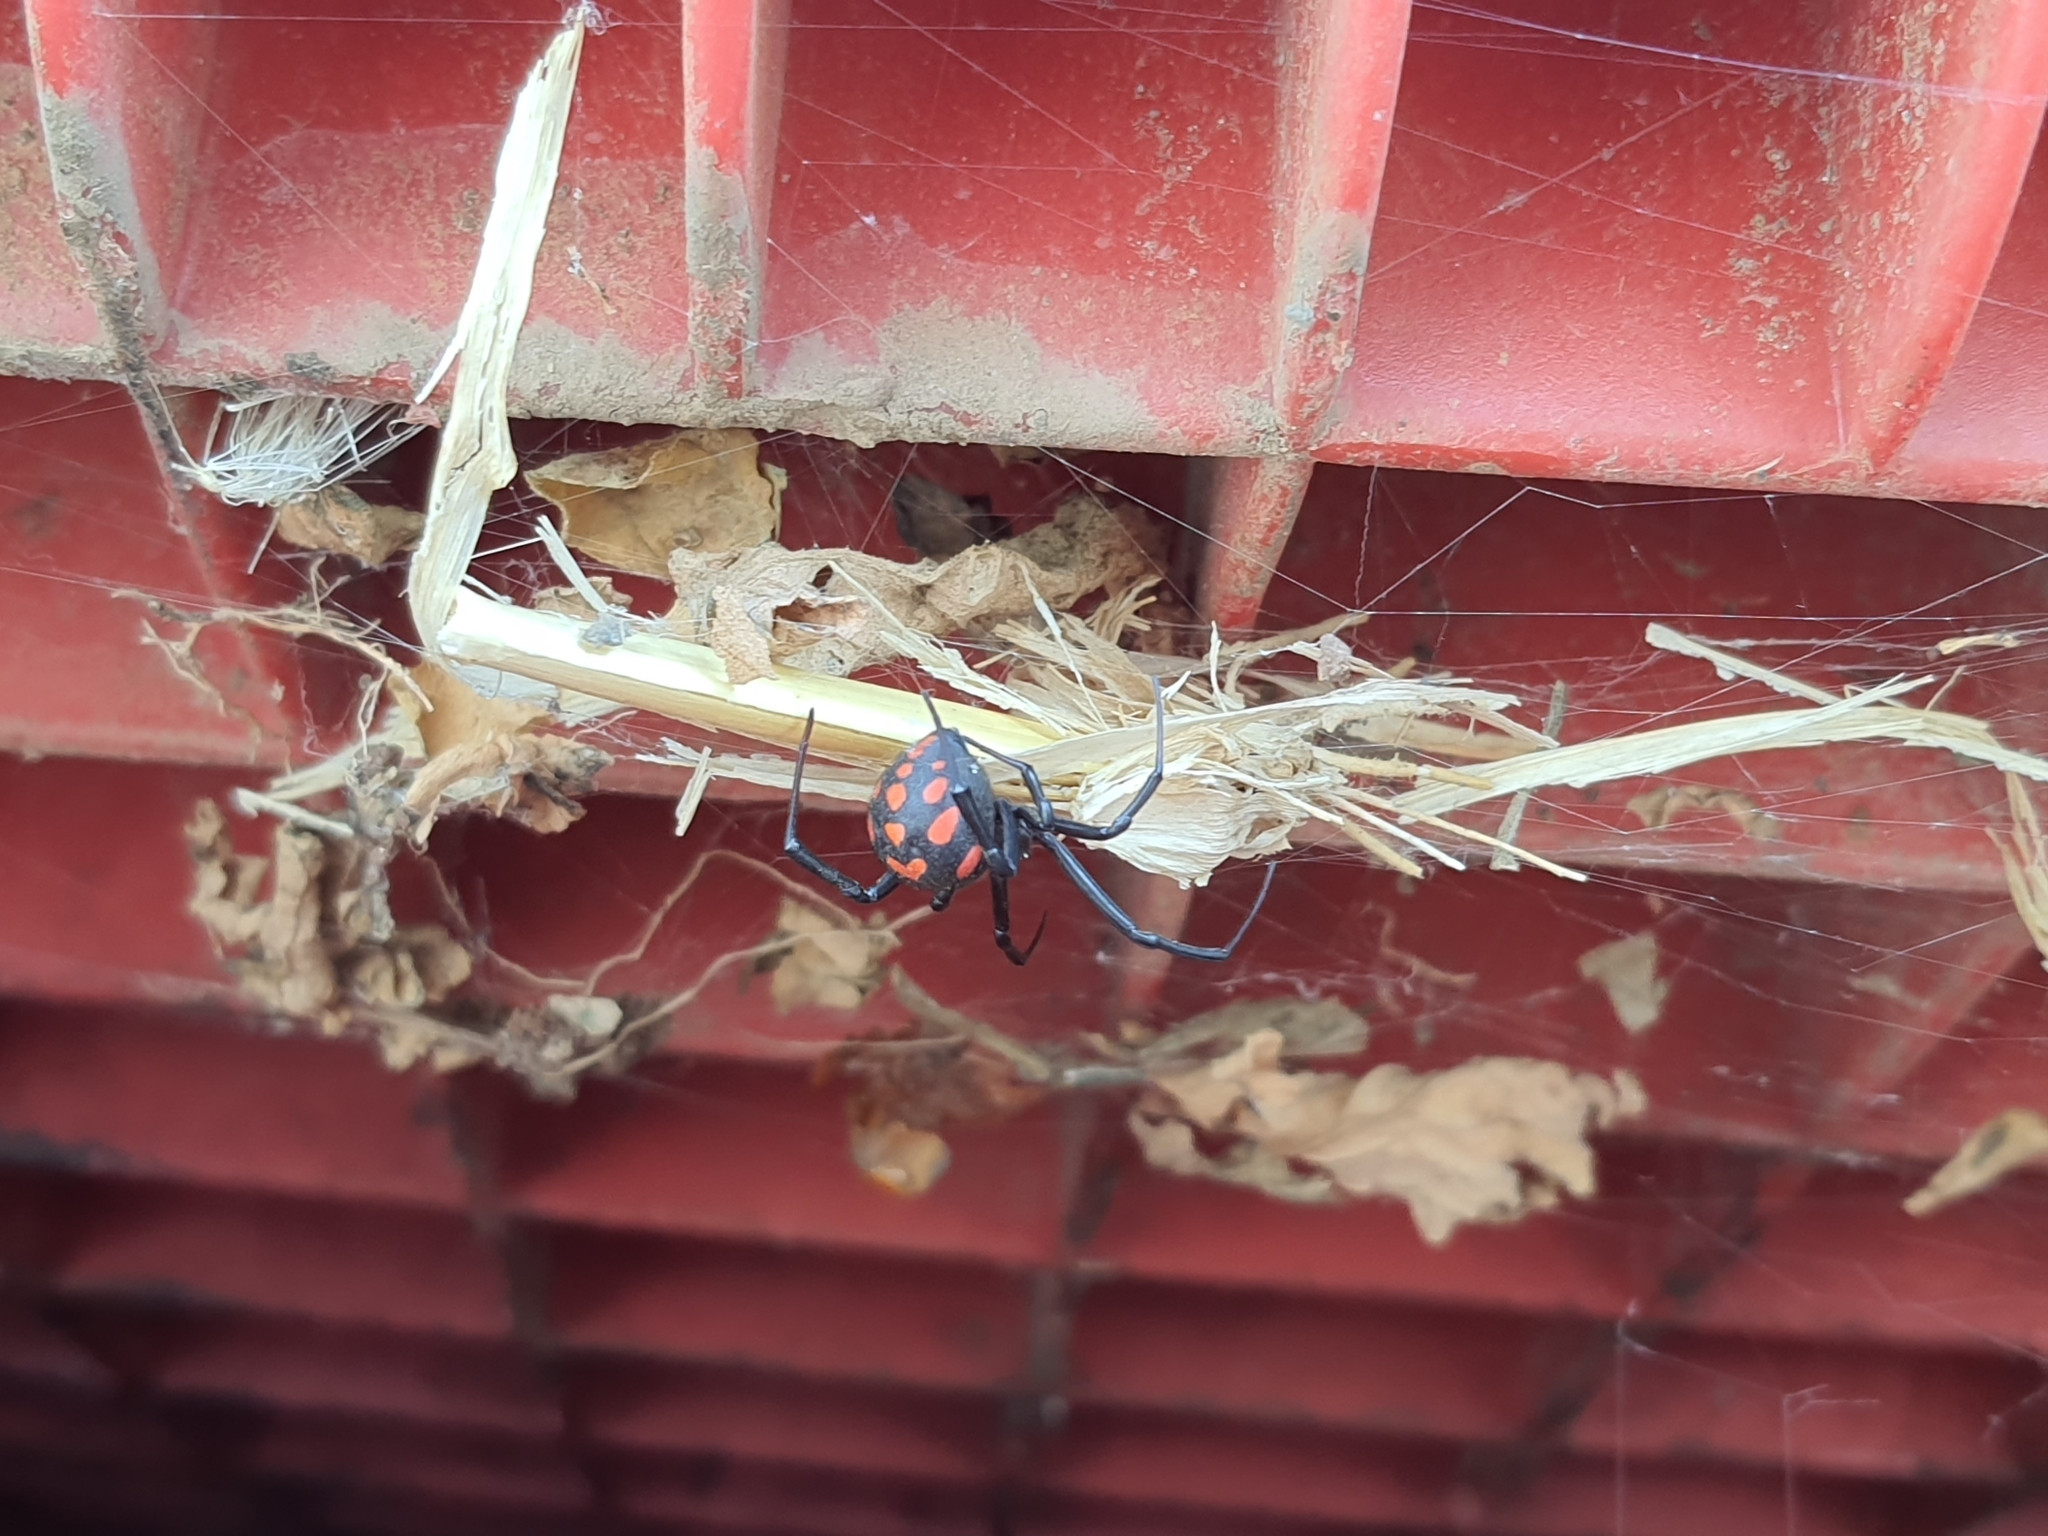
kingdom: Animalia
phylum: Arthropoda
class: Arachnida
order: Araneae
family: Theridiidae
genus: Latrodectus
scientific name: Latrodectus tredecimguttatus
